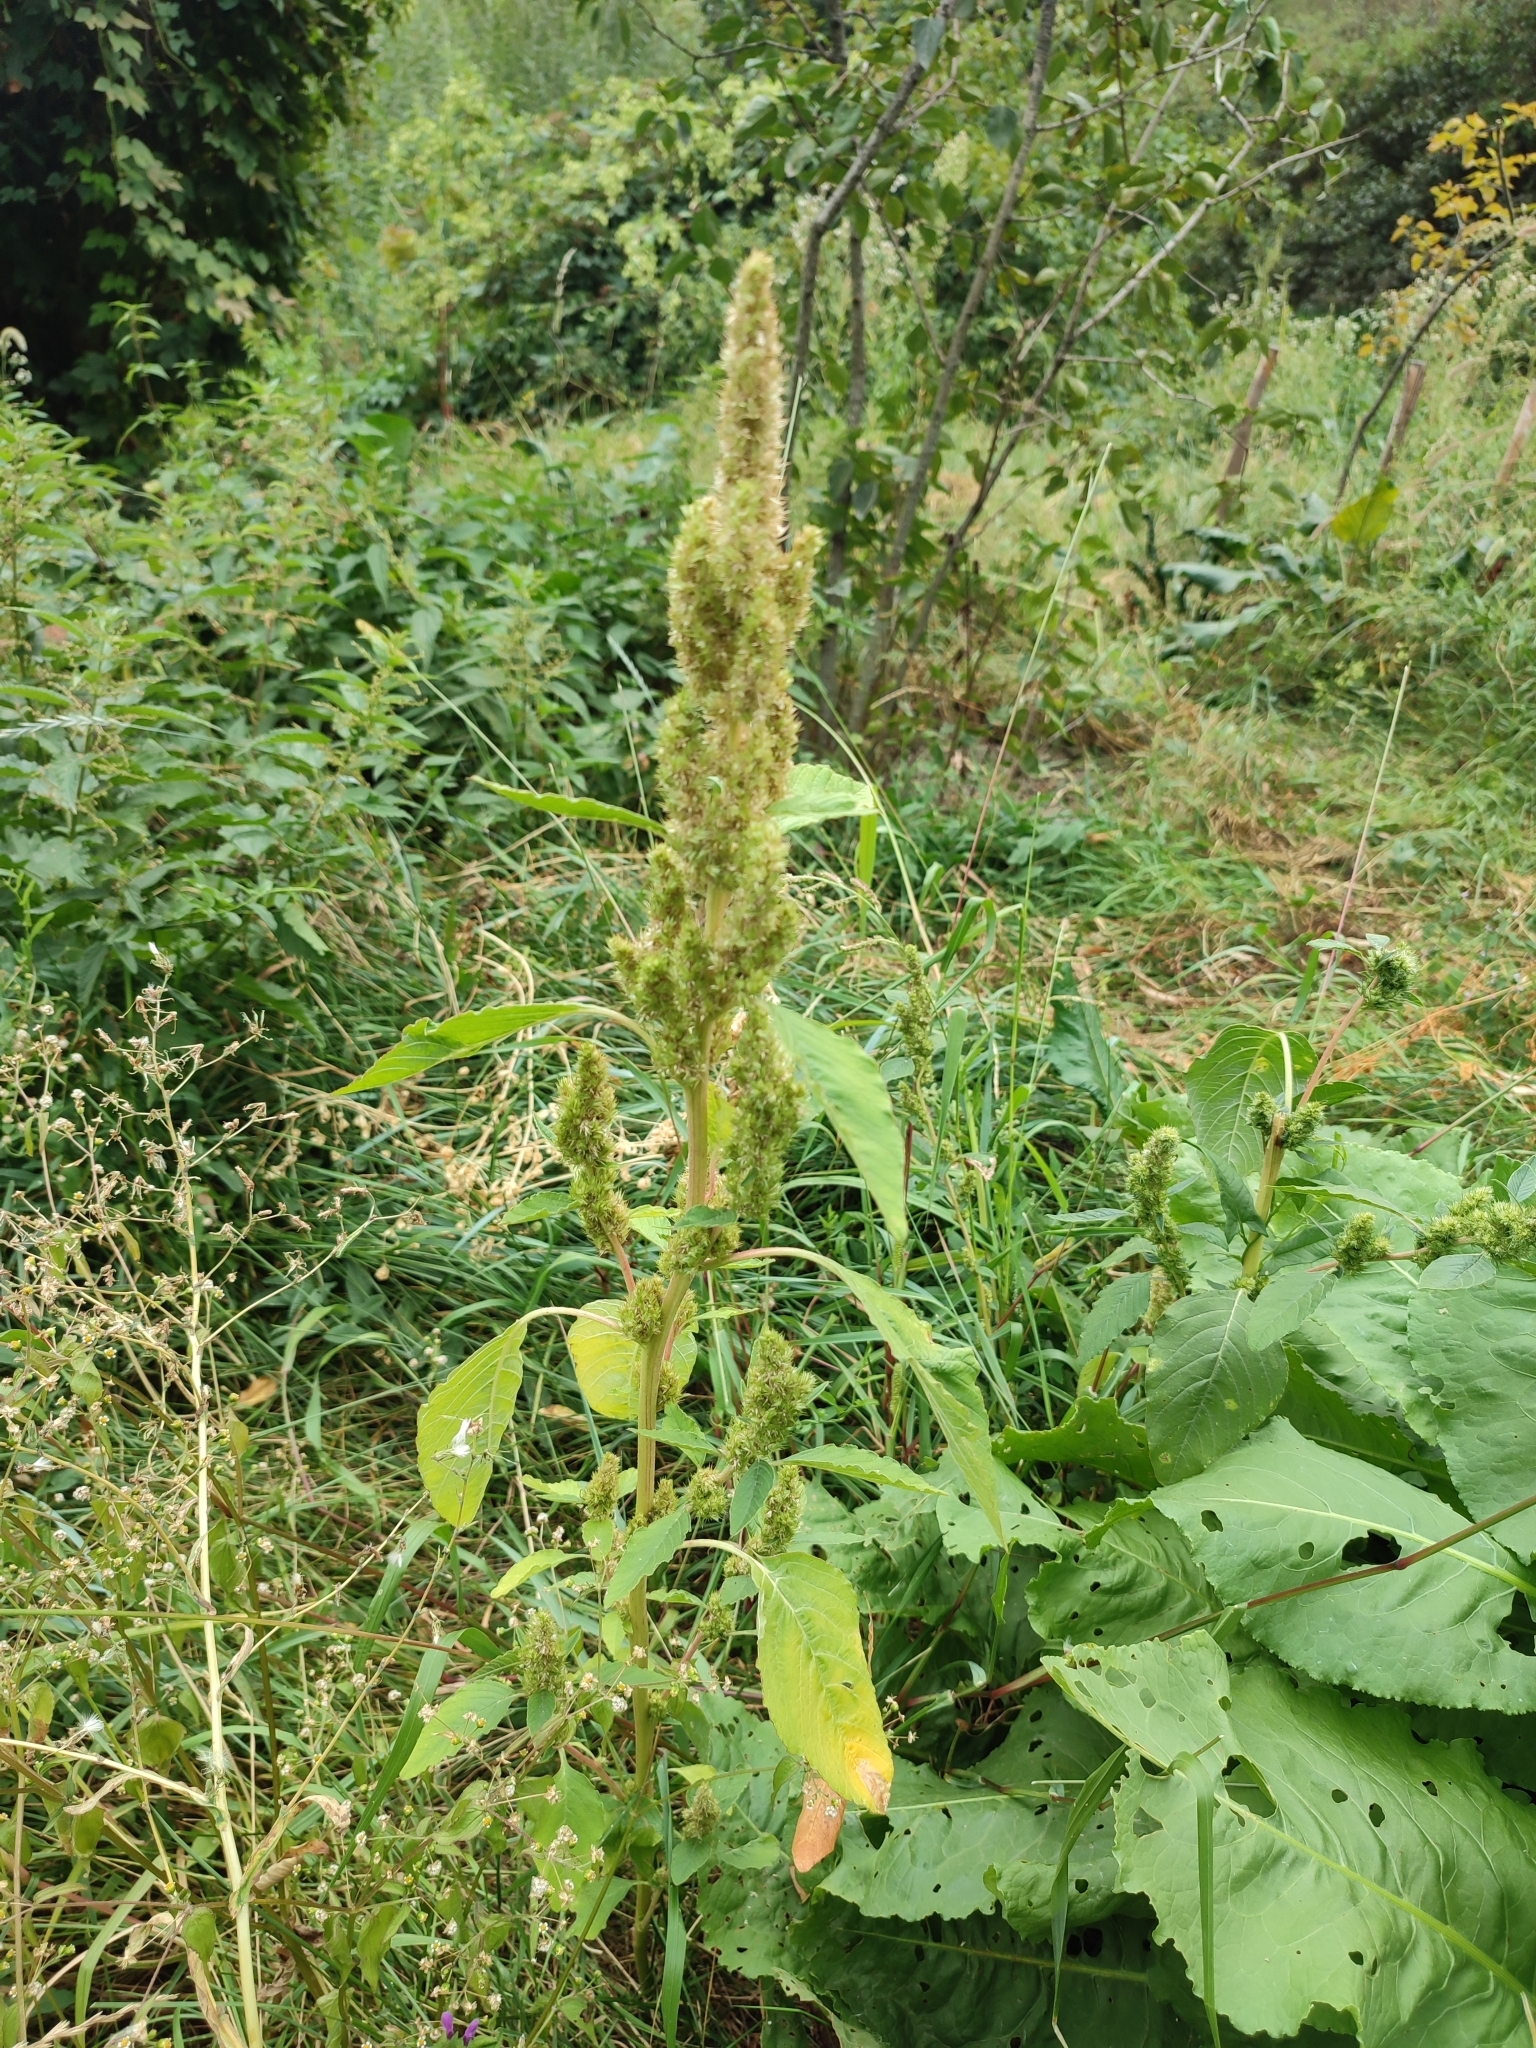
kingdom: Plantae
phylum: Tracheophyta
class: Magnoliopsida
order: Caryophyllales
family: Amaranthaceae
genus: Amaranthus
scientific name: Amaranthus retroflexus
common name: Redroot amaranth
